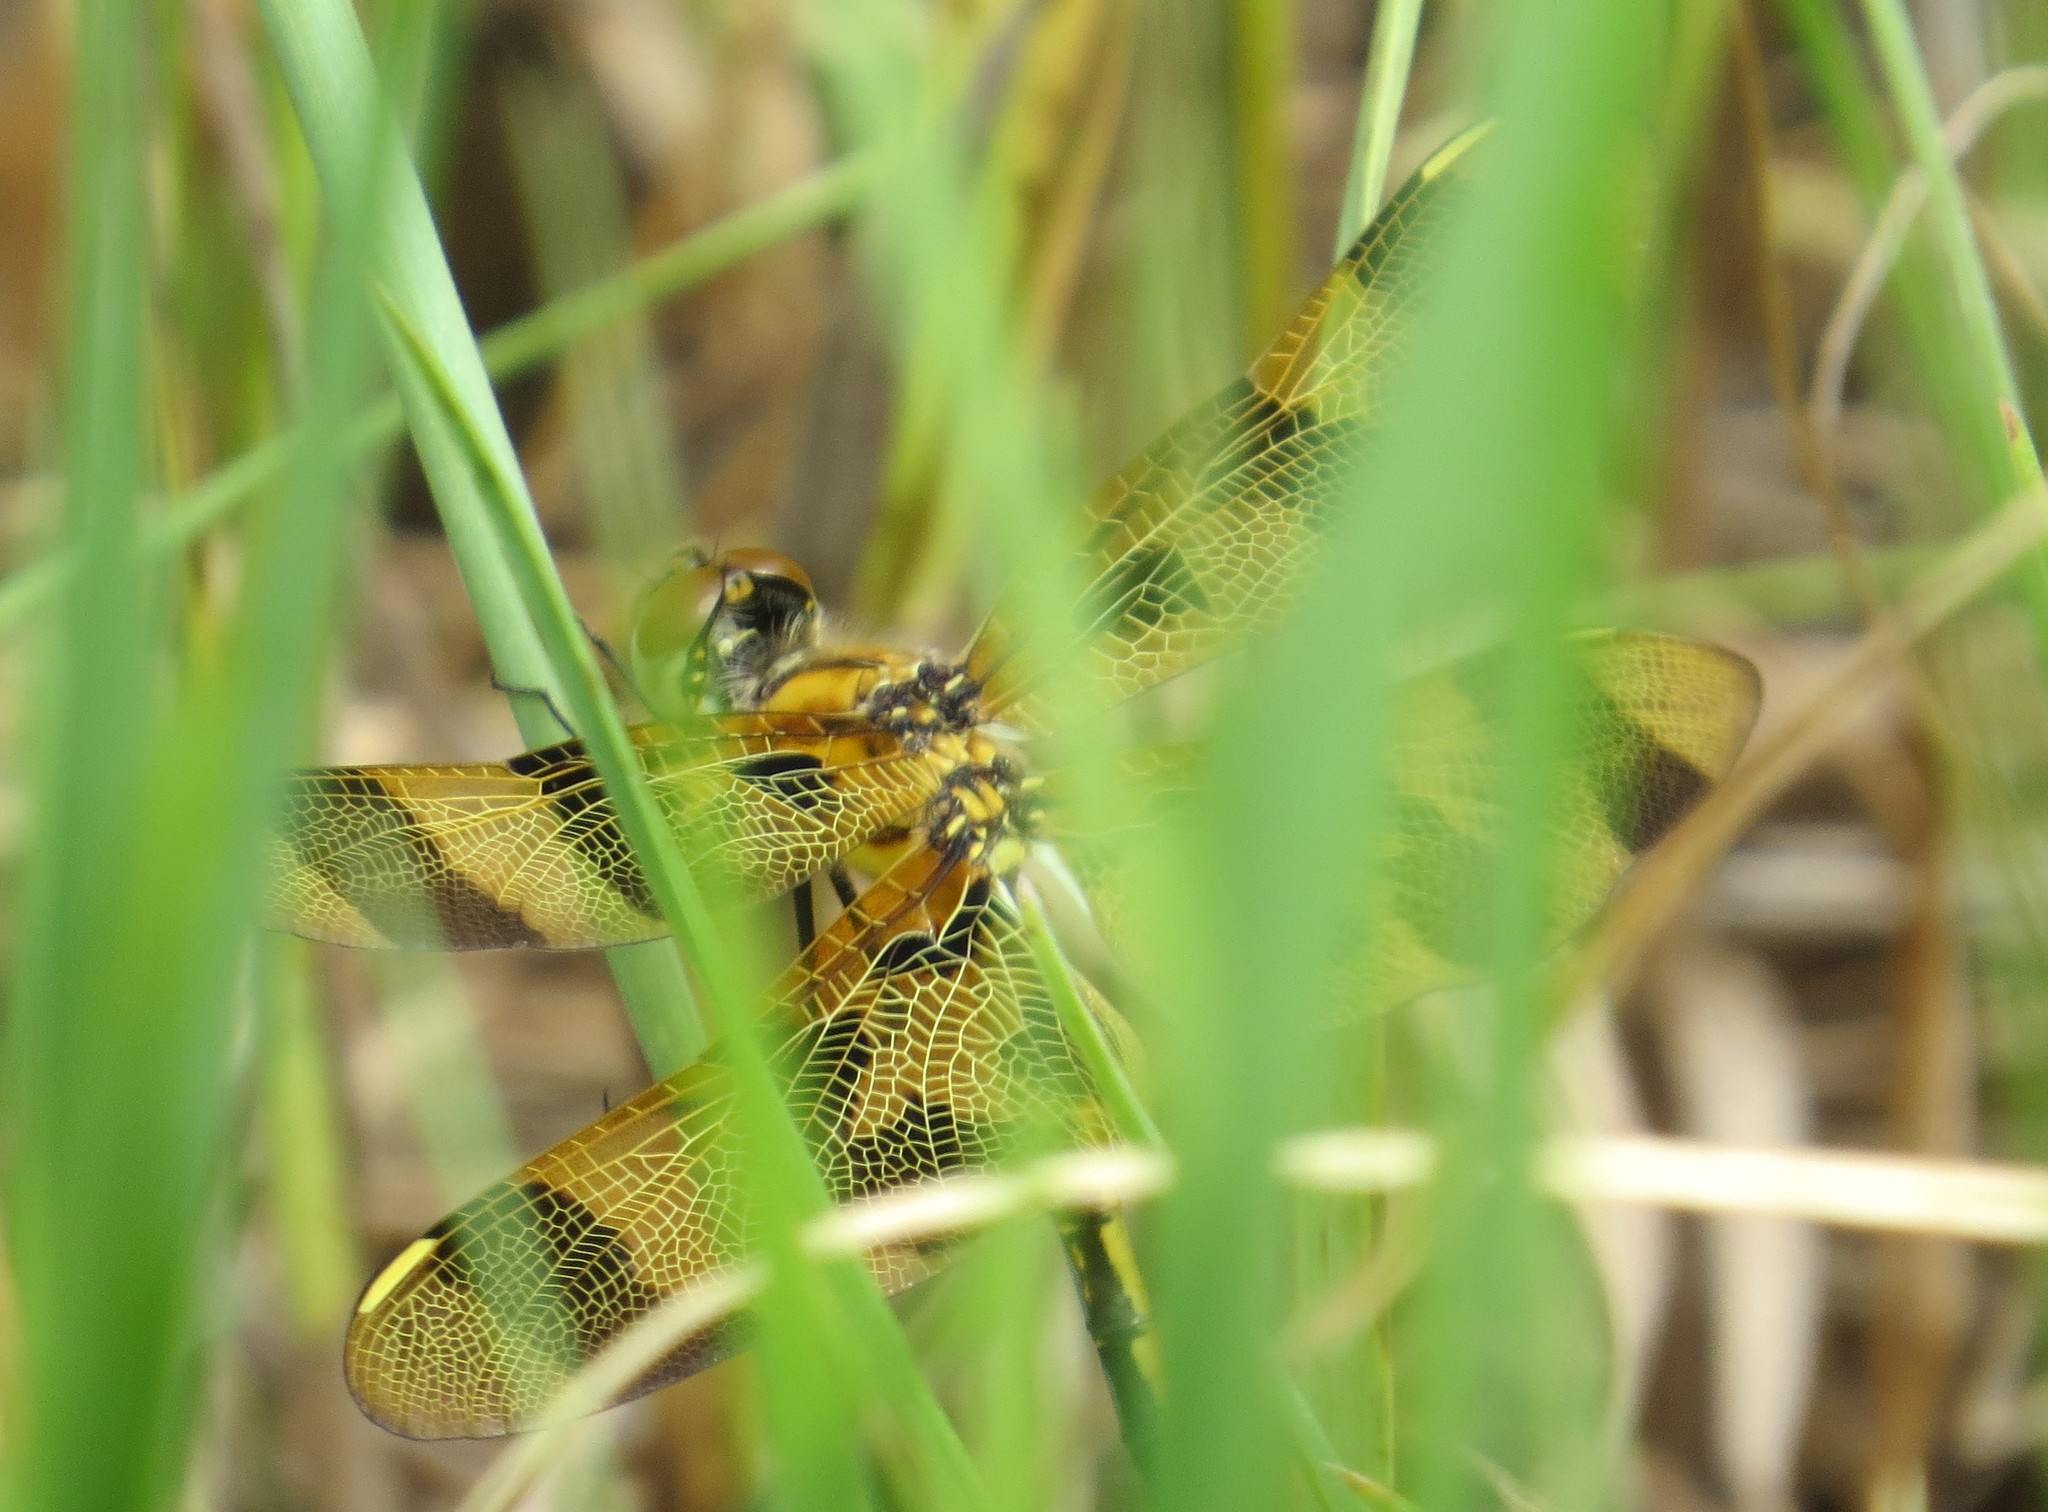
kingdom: Animalia
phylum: Arthropoda
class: Insecta
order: Odonata
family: Libellulidae
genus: Celithemis
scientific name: Celithemis eponina
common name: Halloween pennant
